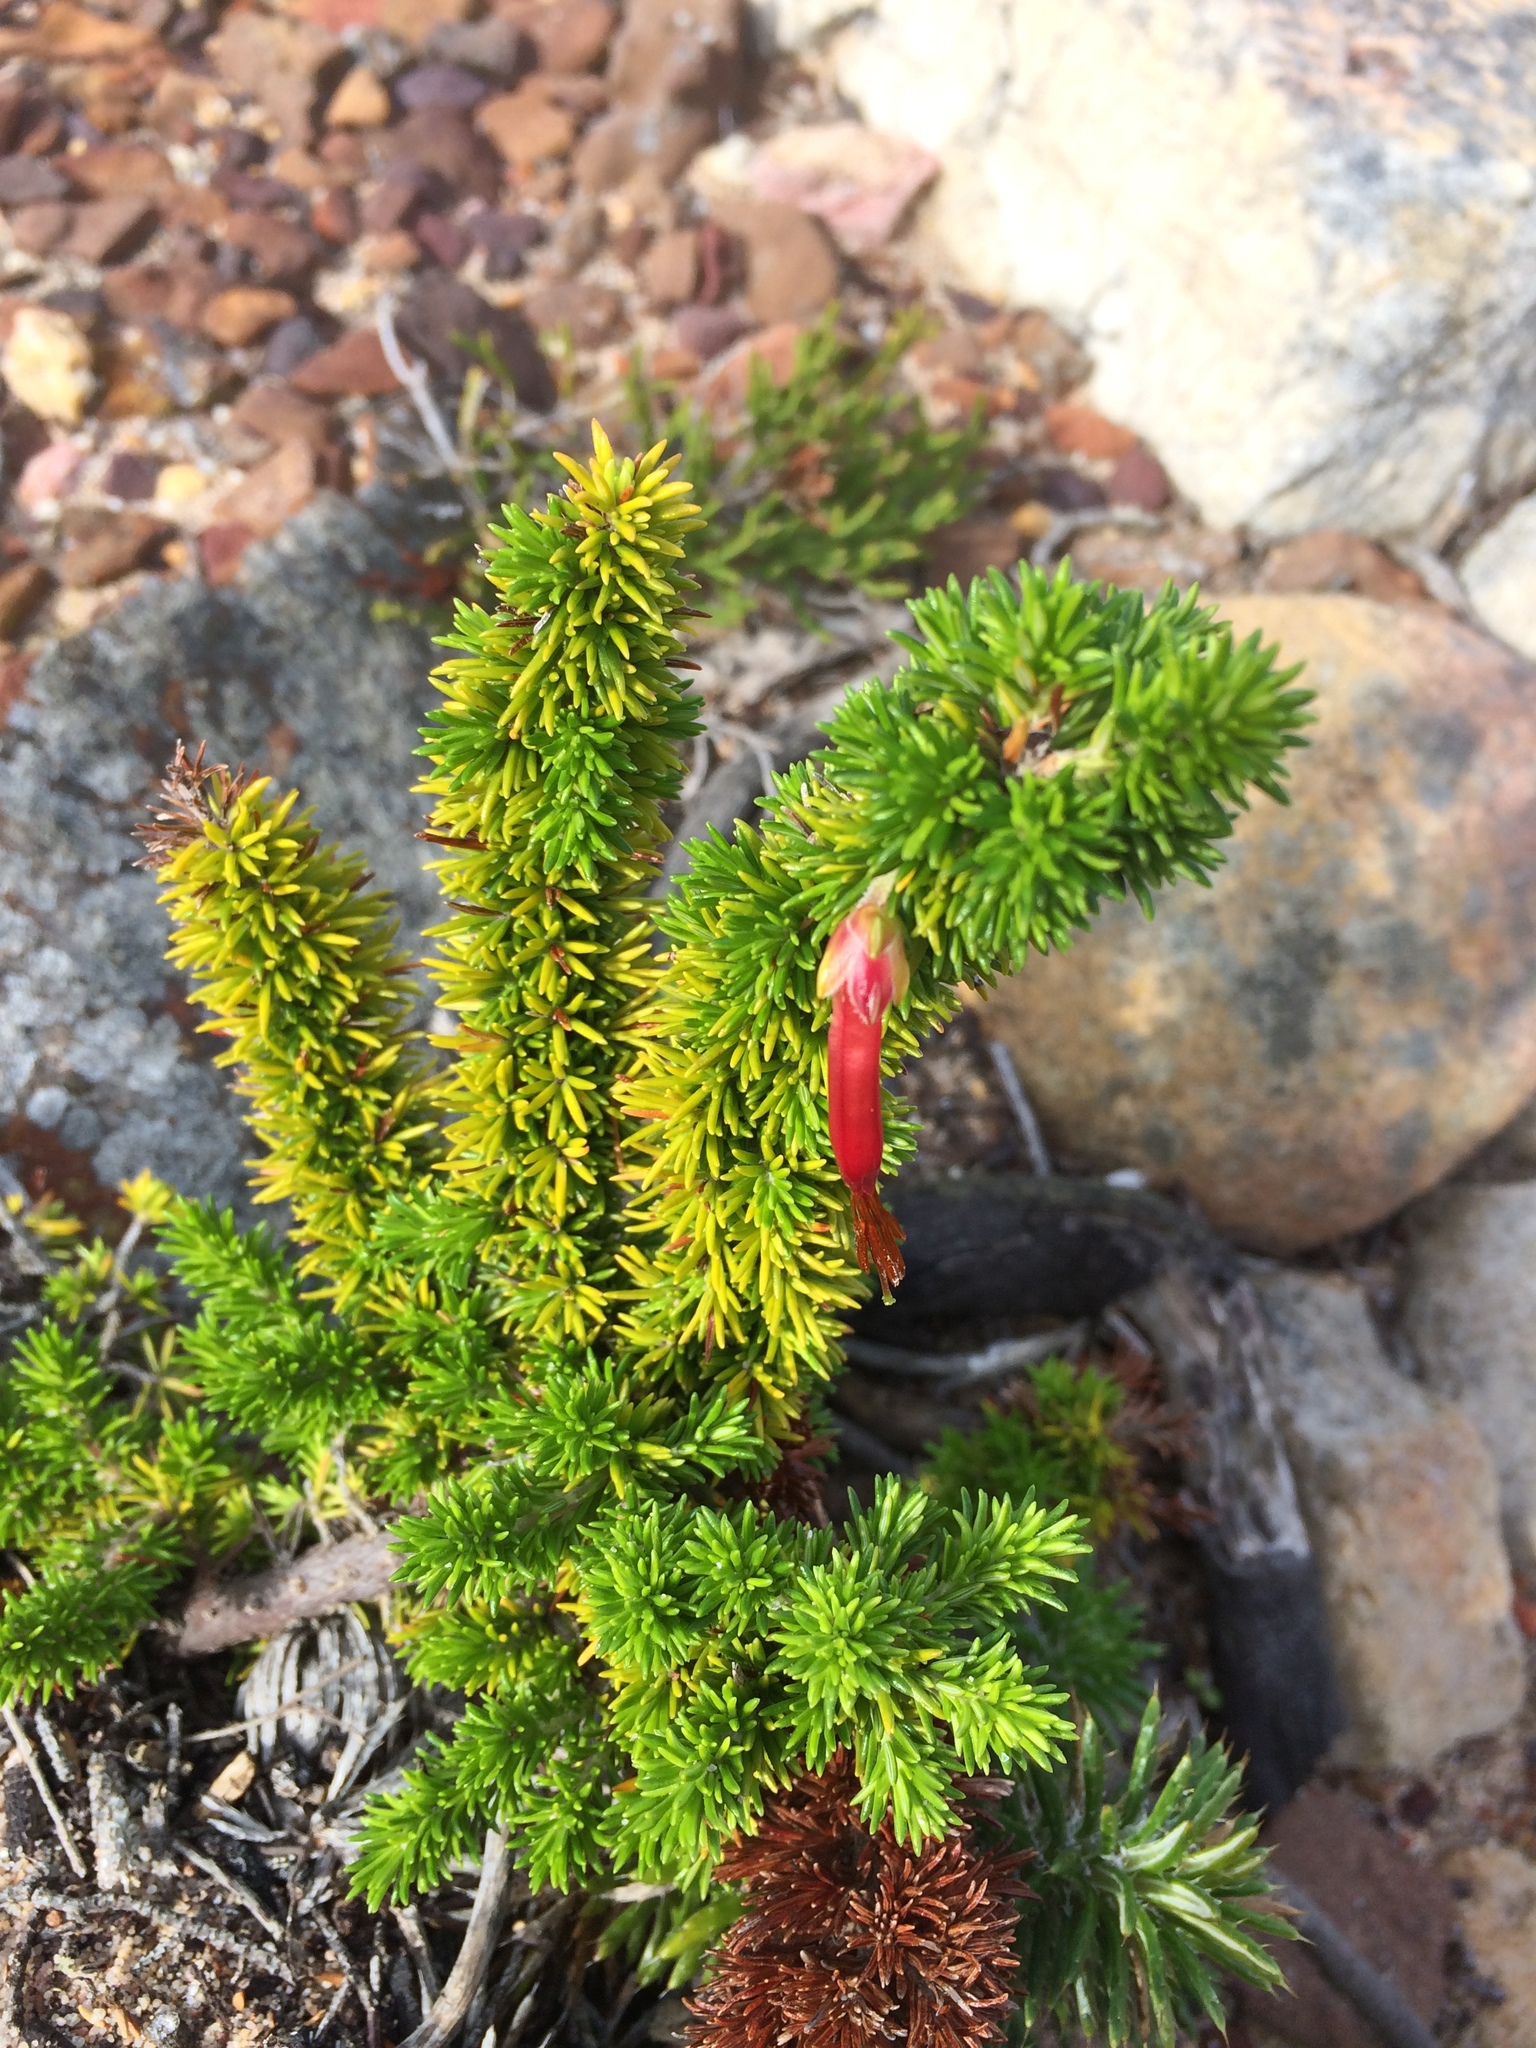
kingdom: Plantae
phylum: Tracheophyta
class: Magnoliopsida
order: Ericales
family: Ericaceae
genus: Erica
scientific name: Erica coccinea
